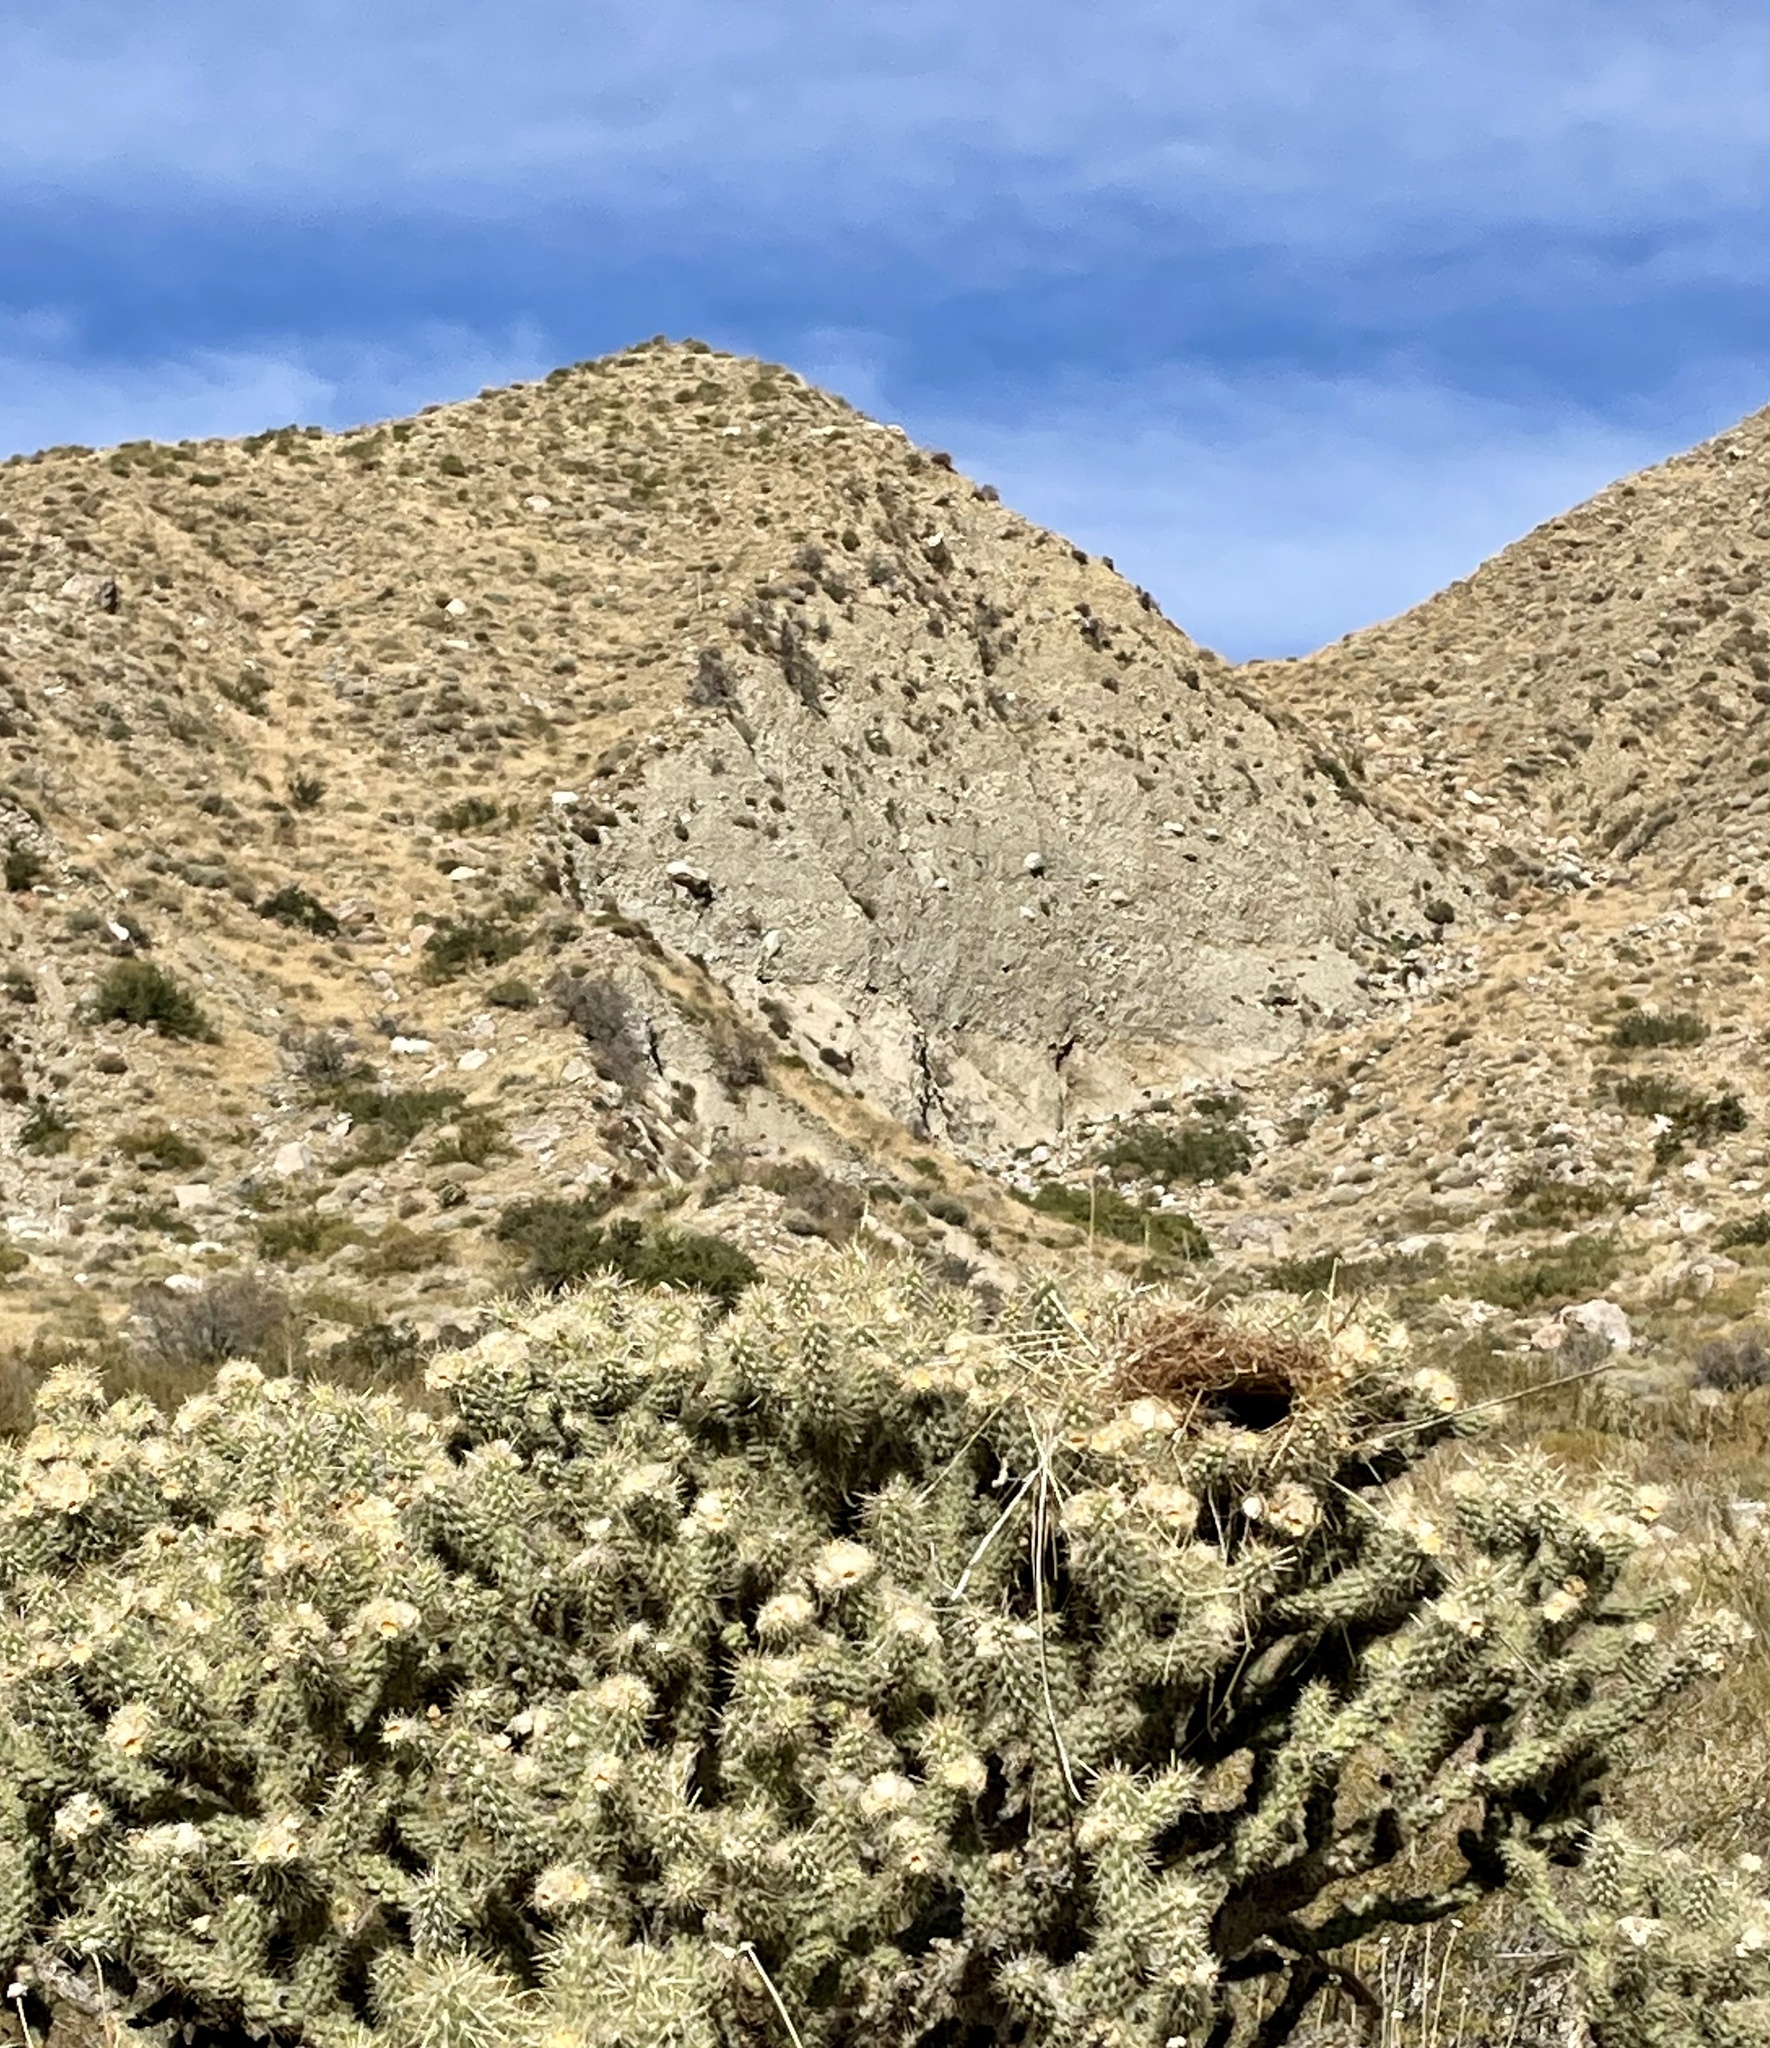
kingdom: Animalia
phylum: Chordata
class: Aves
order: Passeriformes
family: Troglodytidae
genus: Campylorhynchus
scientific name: Campylorhynchus brunneicapillus
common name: Cactus wren
